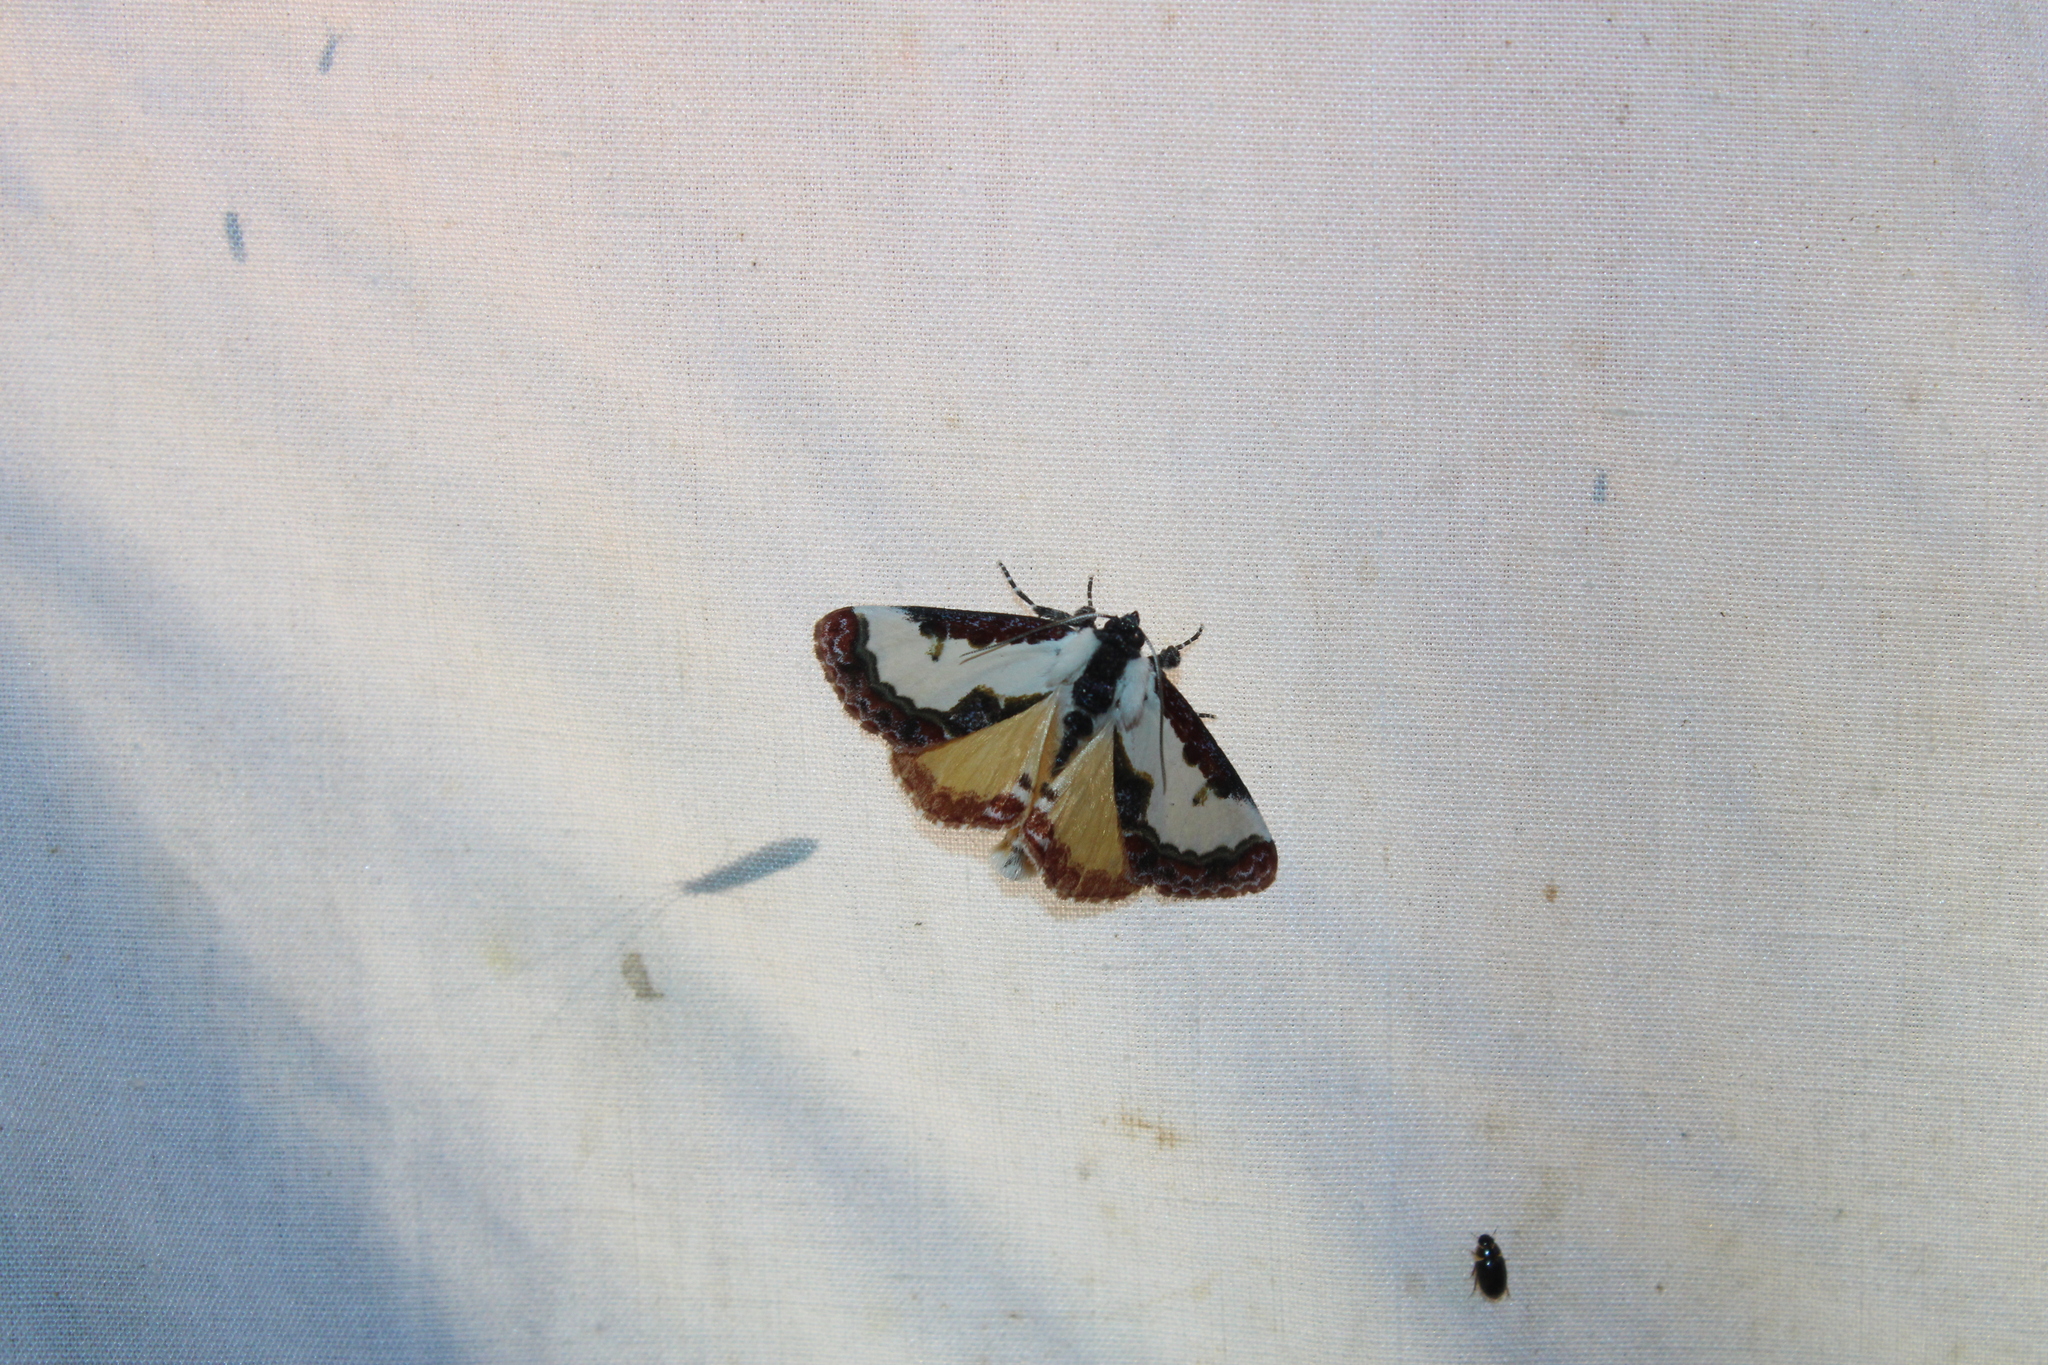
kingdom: Animalia
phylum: Arthropoda
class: Insecta
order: Lepidoptera
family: Noctuidae
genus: Eudryas
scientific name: Eudryas unio
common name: Pearly wood-nymph
